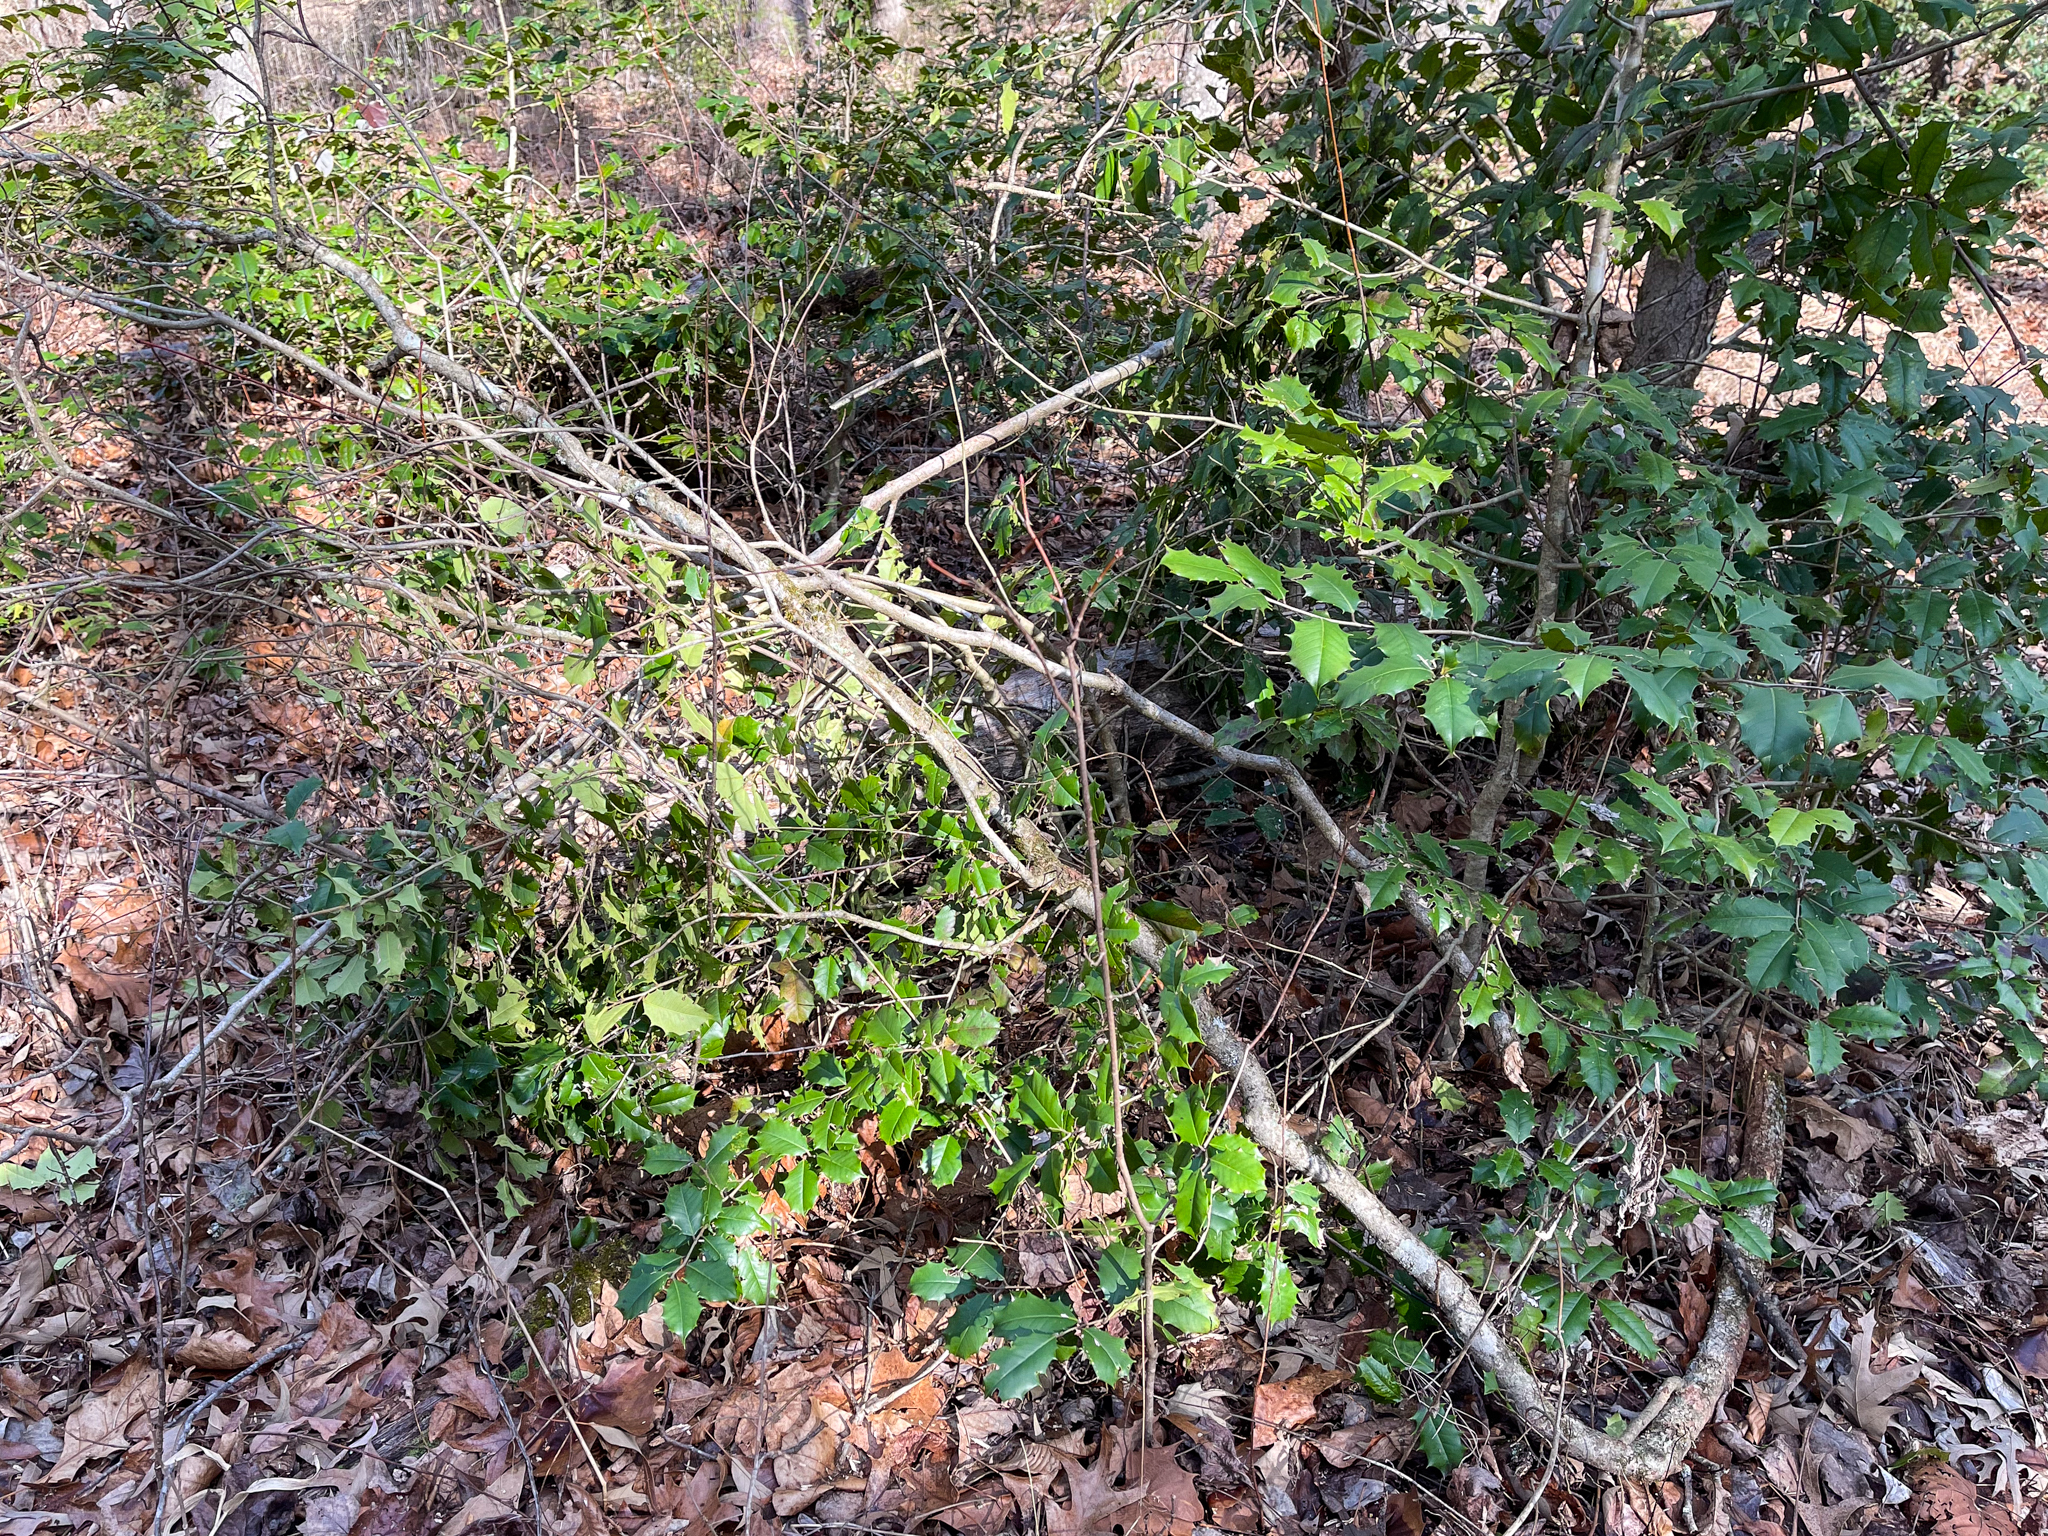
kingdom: Plantae
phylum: Tracheophyta
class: Magnoliopsida
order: Aquifoliales
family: Aquifoliaceae
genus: Ilex
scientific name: Ilex opaca
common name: American holly
